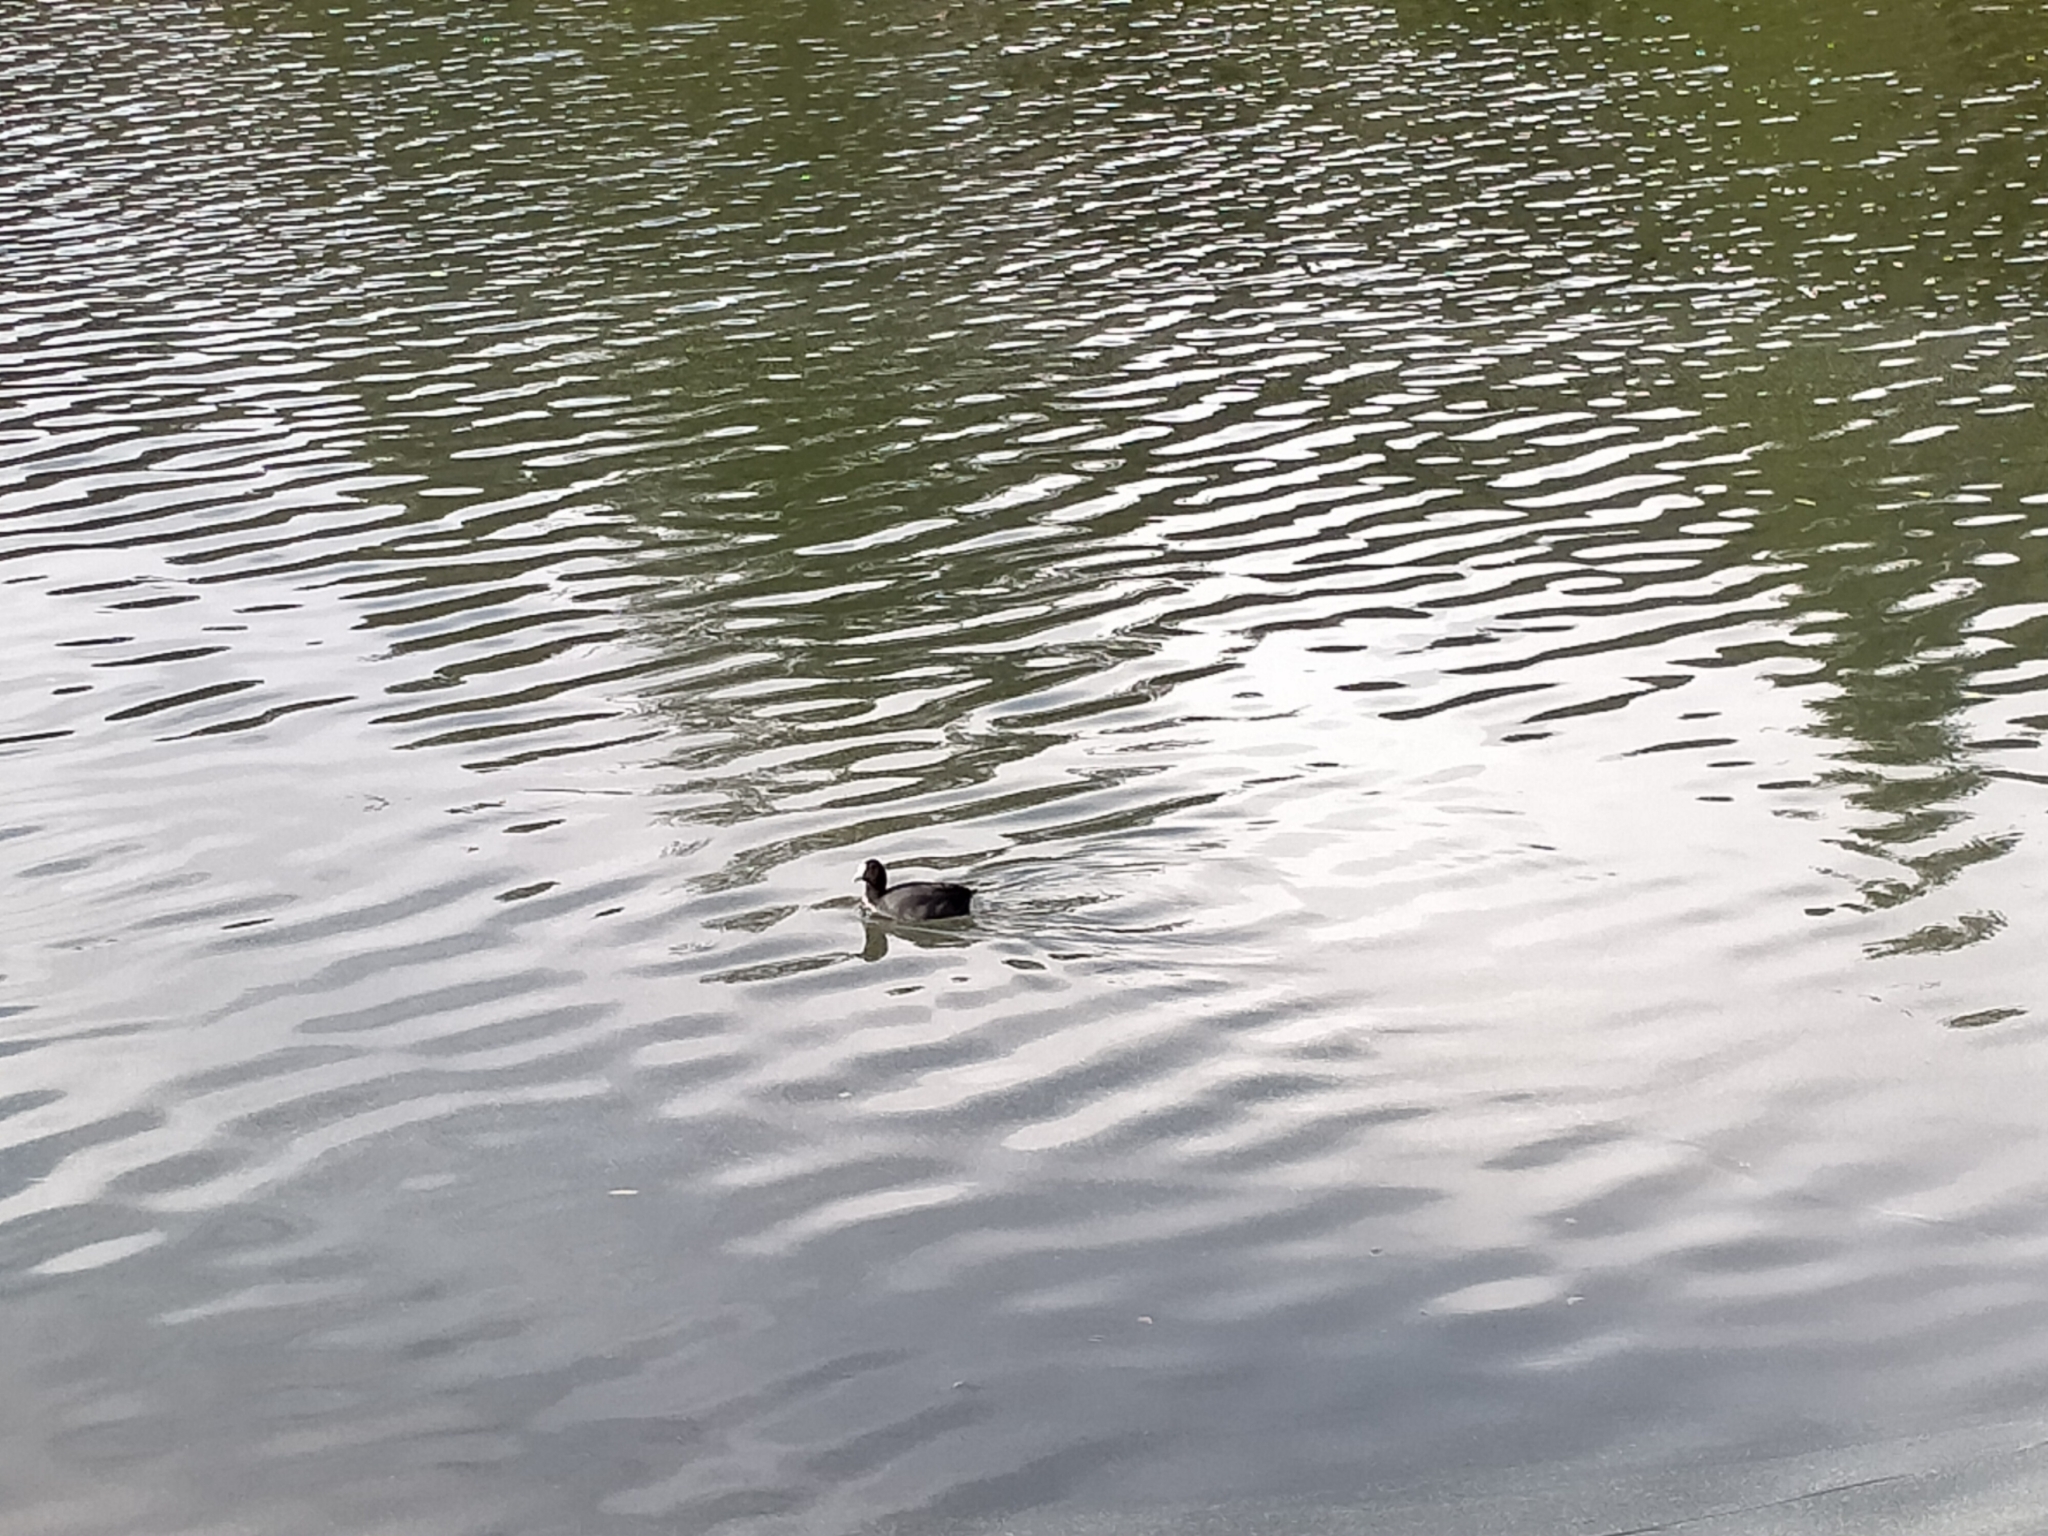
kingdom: Animalia
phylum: Chordata
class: Aves
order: Gruiformes
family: Rallidae
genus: Fulica
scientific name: Fulica atra
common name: Eurasian coot
